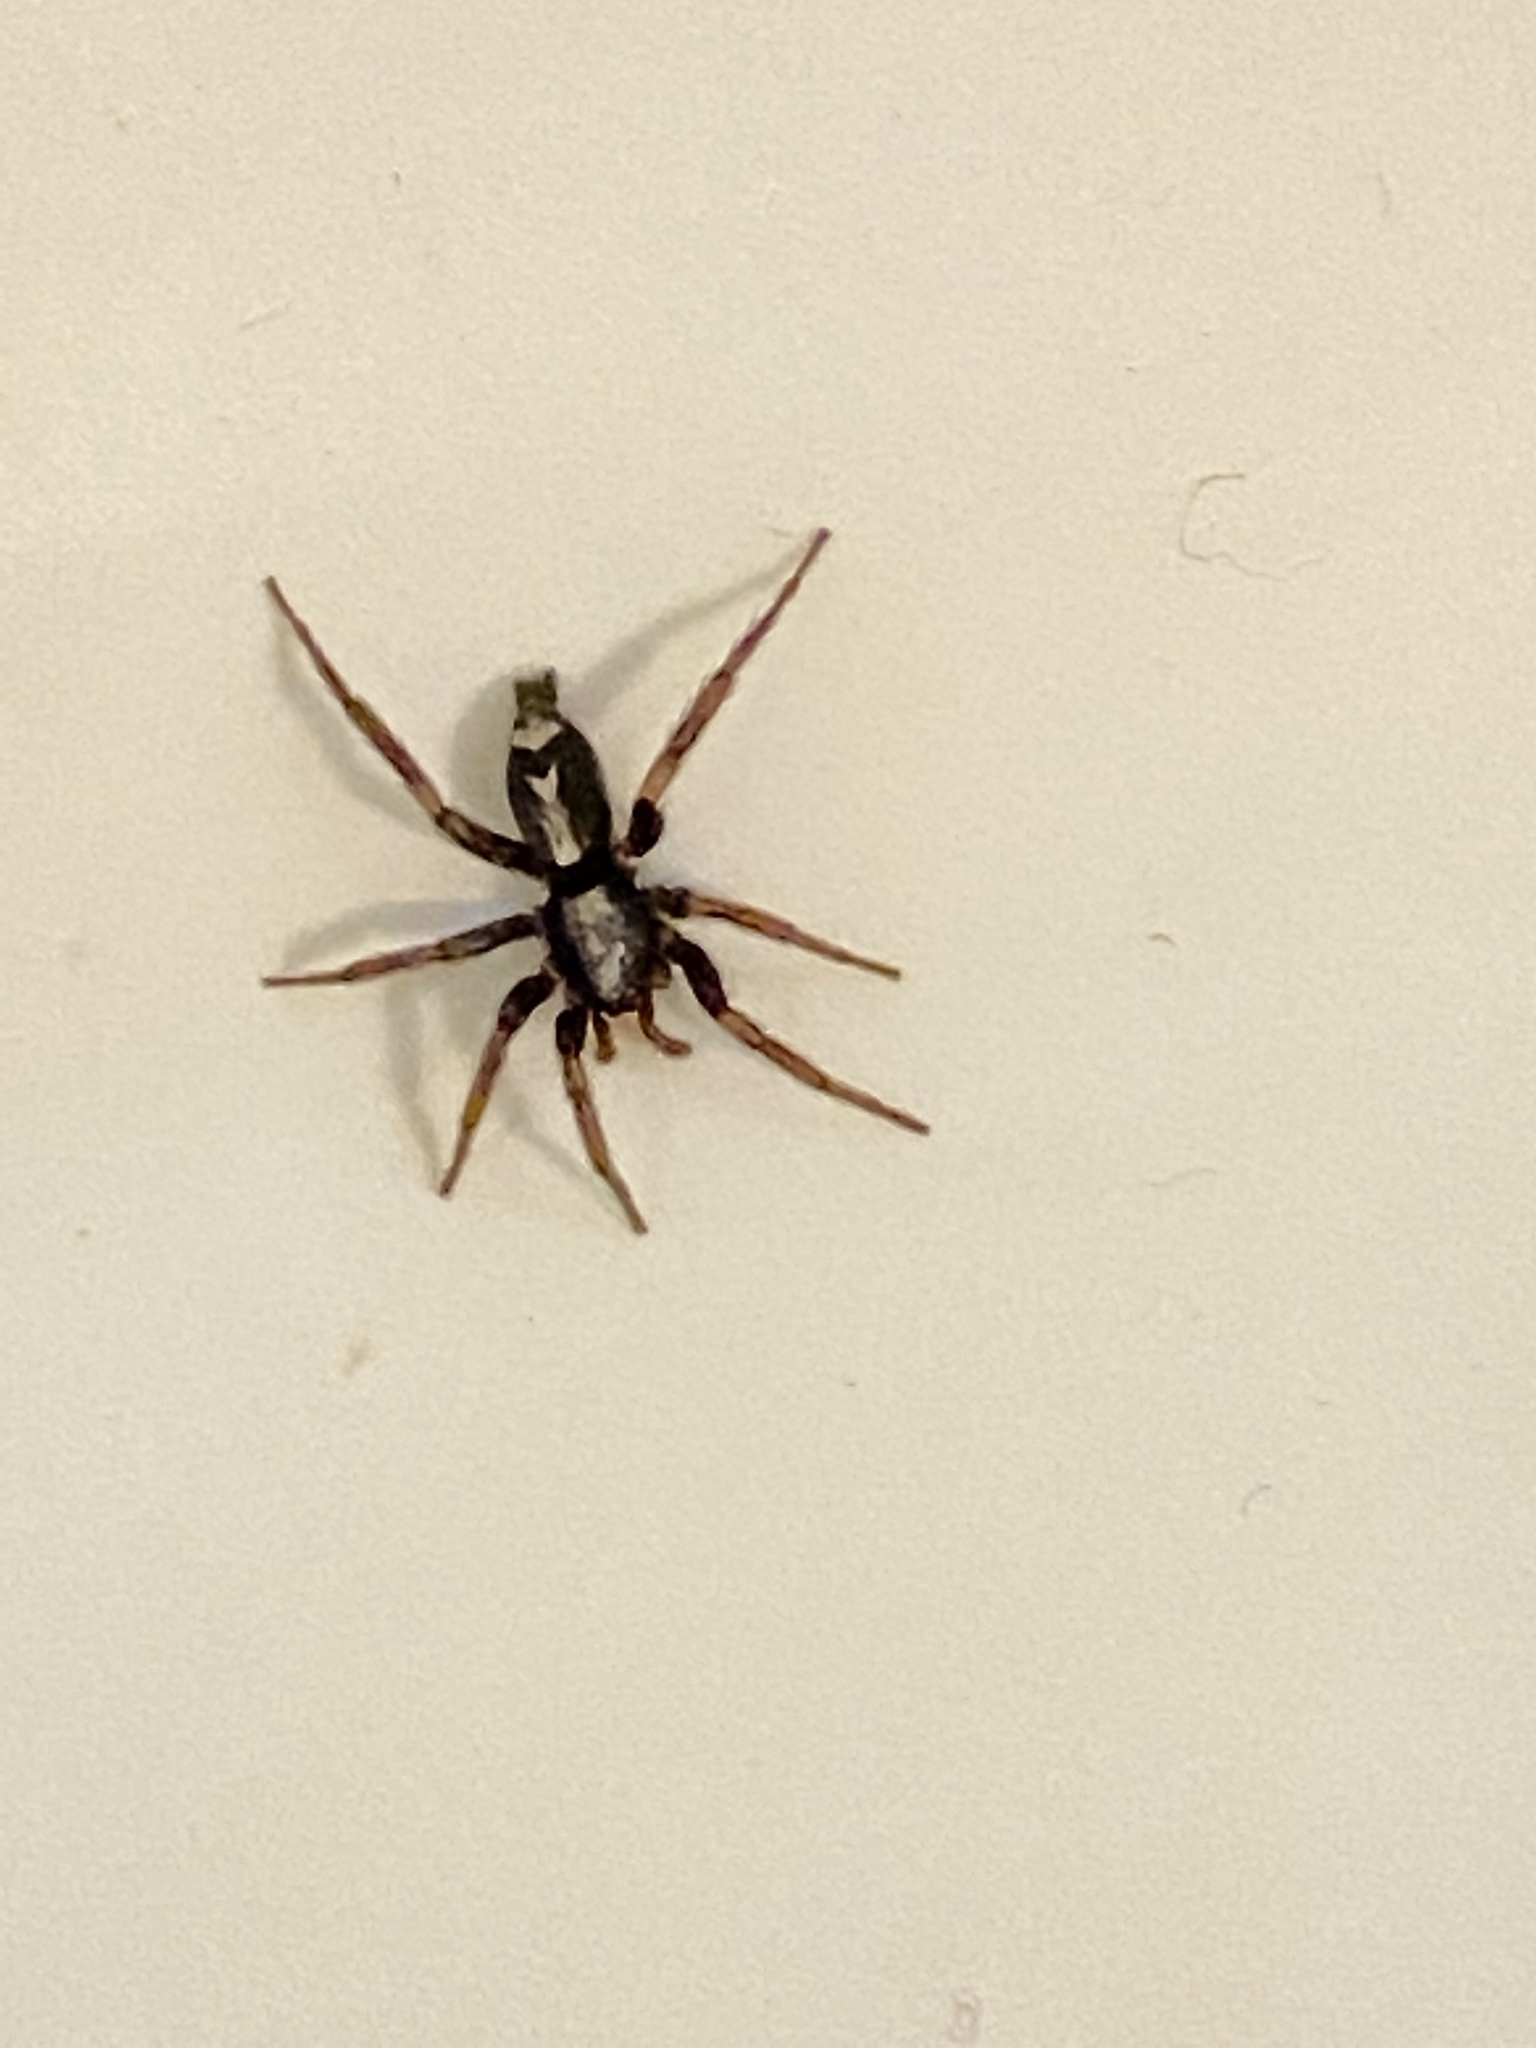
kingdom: Animalia
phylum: Arthropoda
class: Arachnida
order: Araneae
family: Gnaphosidae
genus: Herpyllus
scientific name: Herpyllus ecclesiasticus
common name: Eastern parson spider
